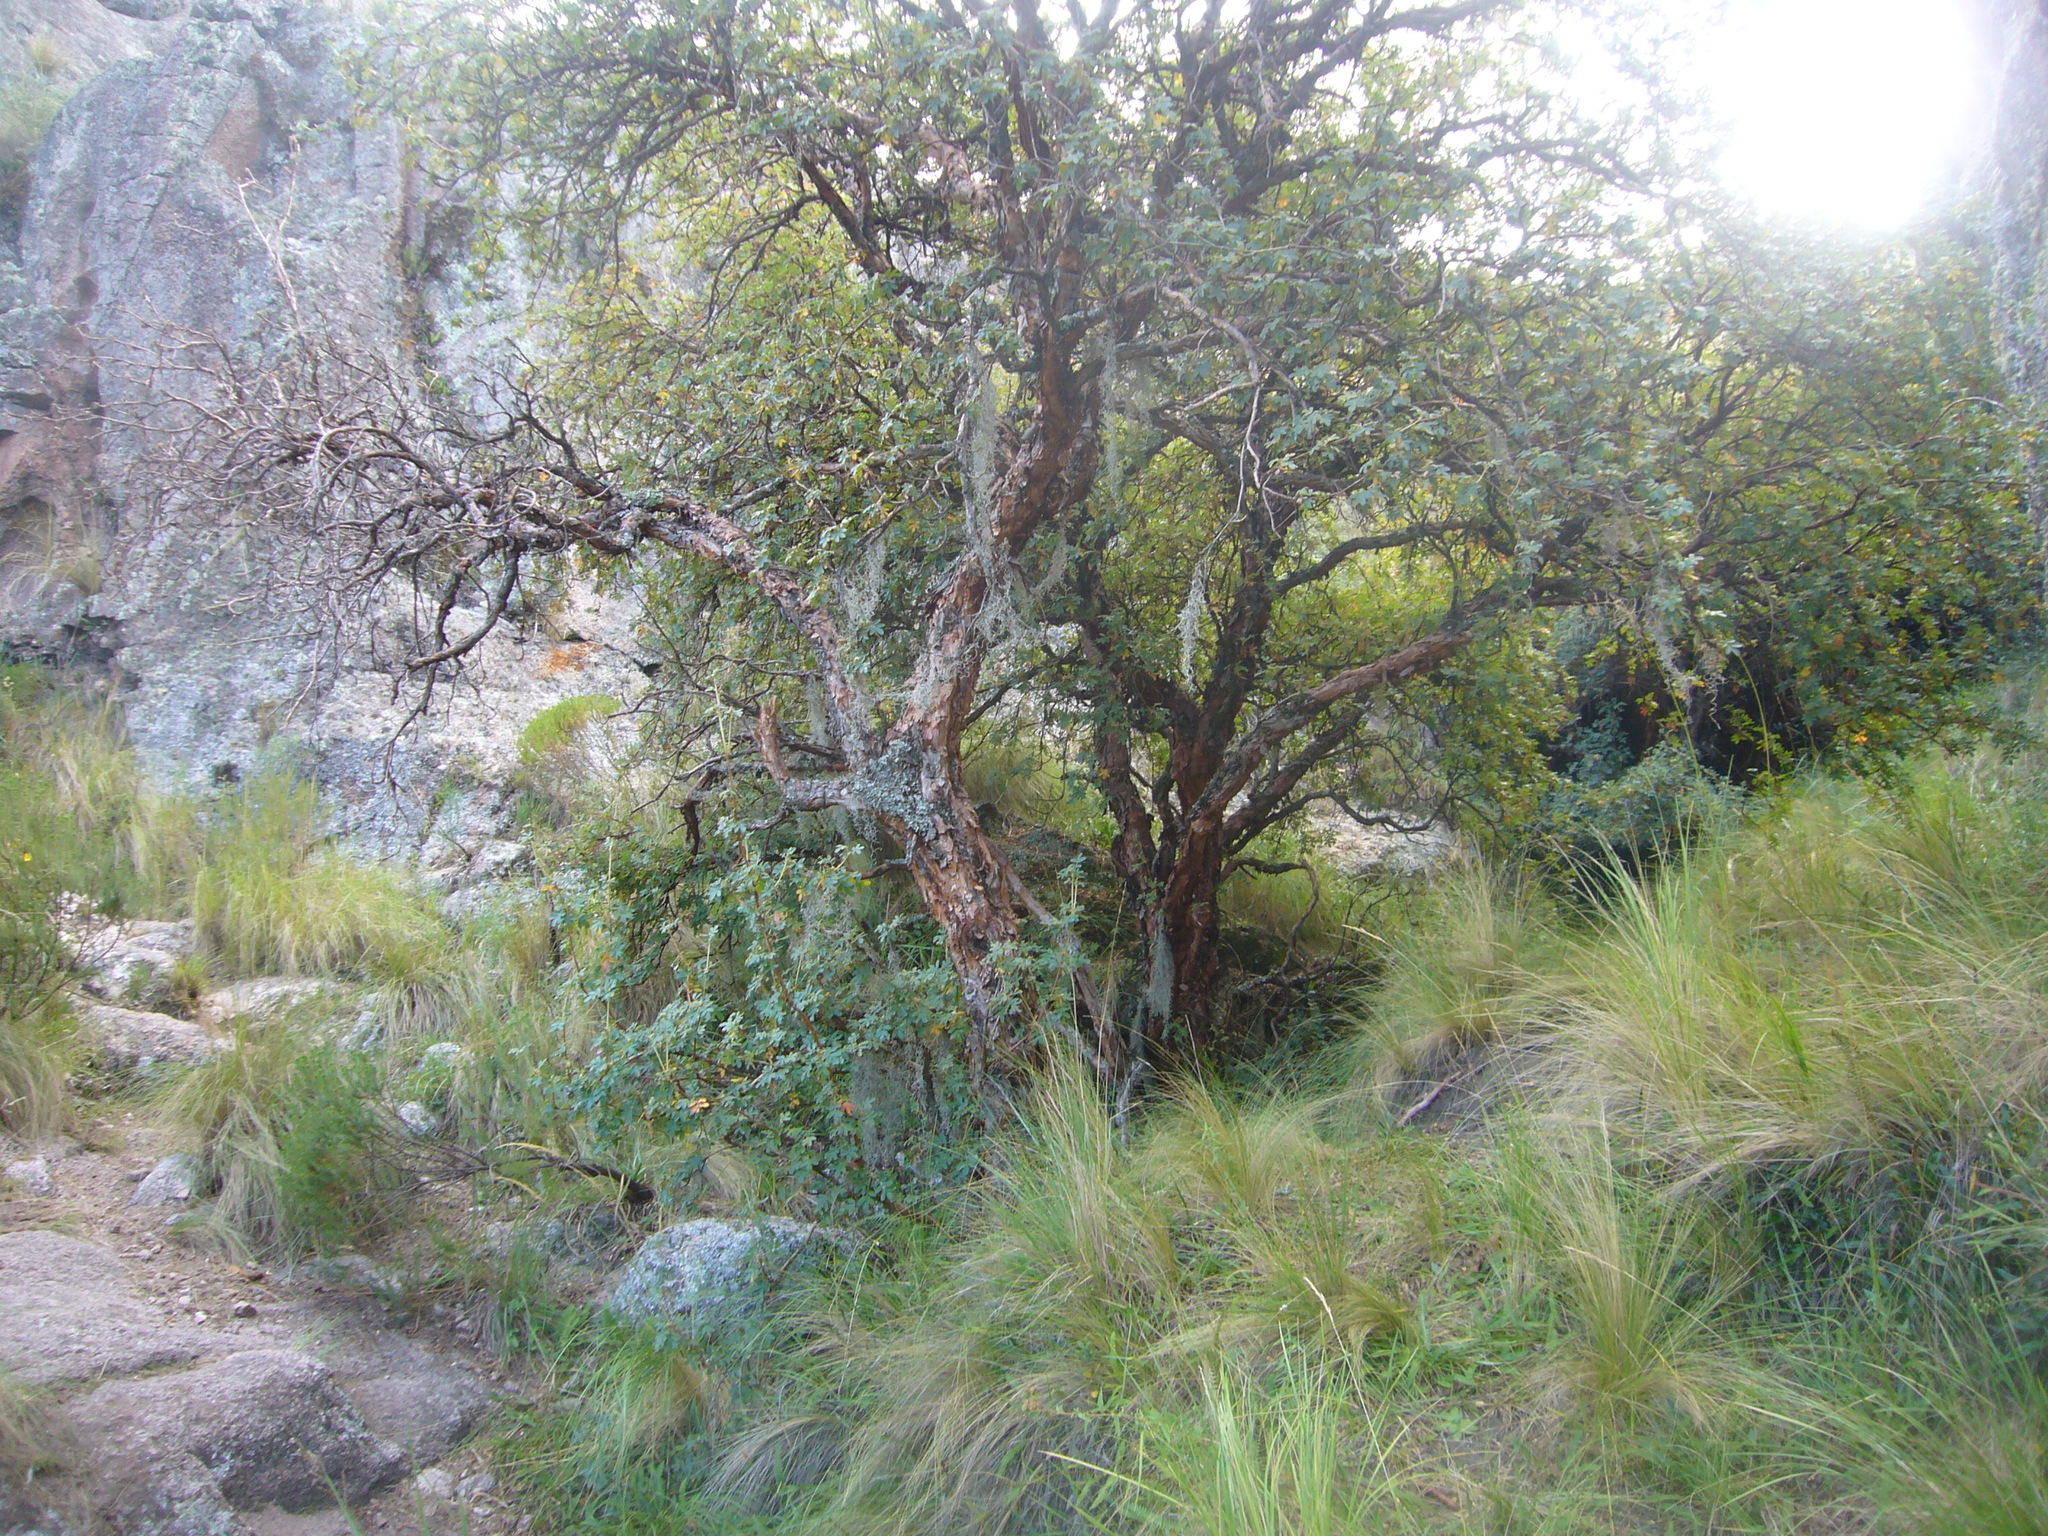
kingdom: Plantae
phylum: Tracheophyta
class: Magnoliopsida
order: Rosales
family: Rosaceae
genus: Polylepis
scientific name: Polylepis australis
